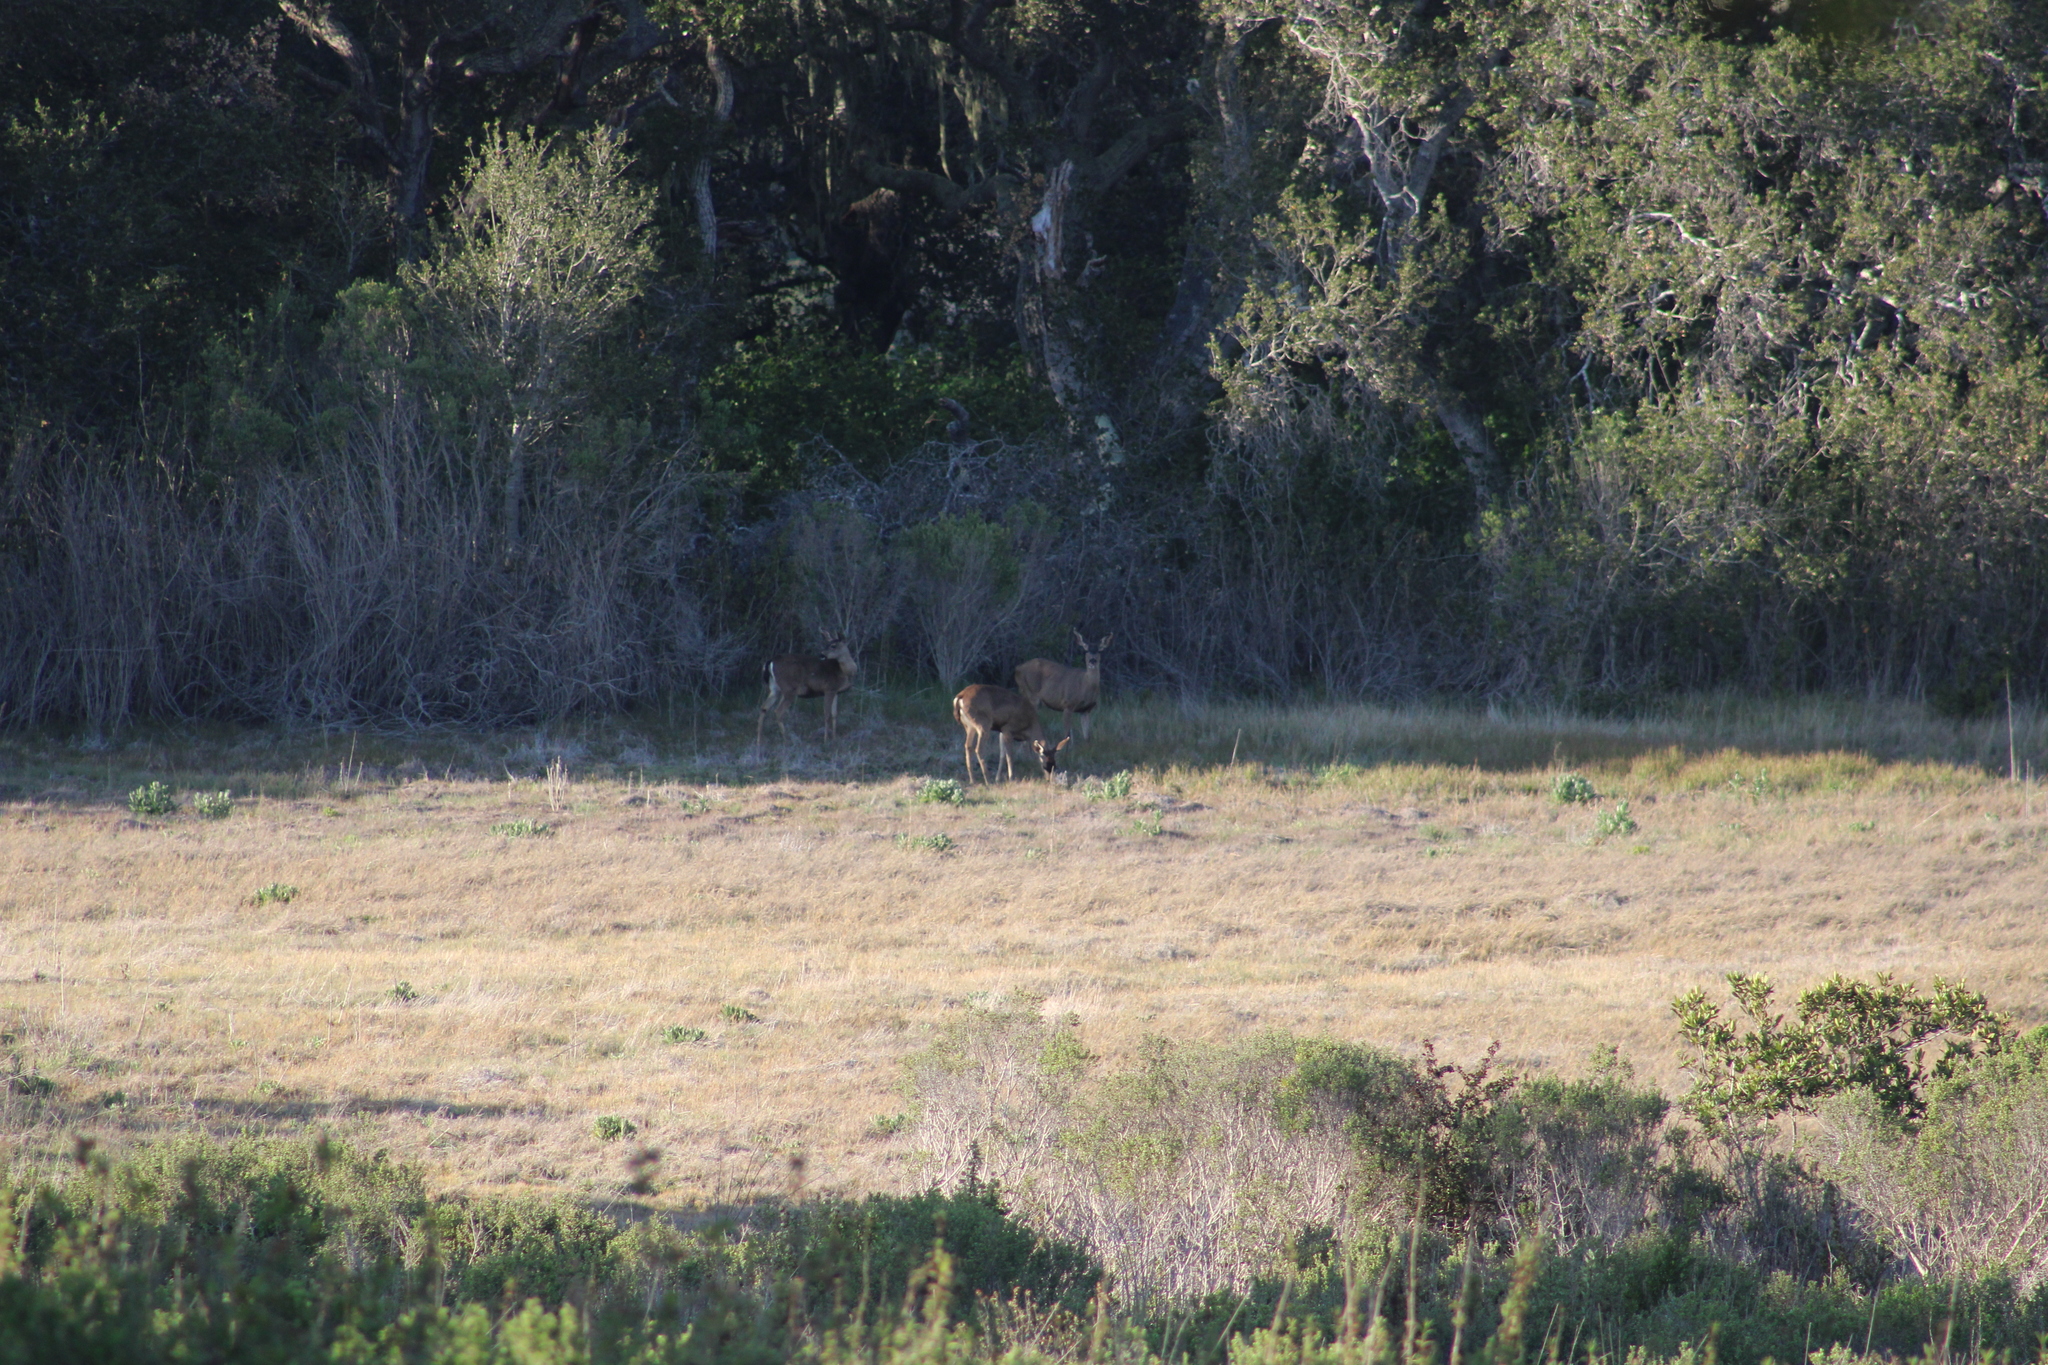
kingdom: Animalia
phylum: Chordata
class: Mammalia
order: Artiodactyla
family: Cervidae
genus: Odocoileus
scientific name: Odocoileus hemionus
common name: Mule deer
